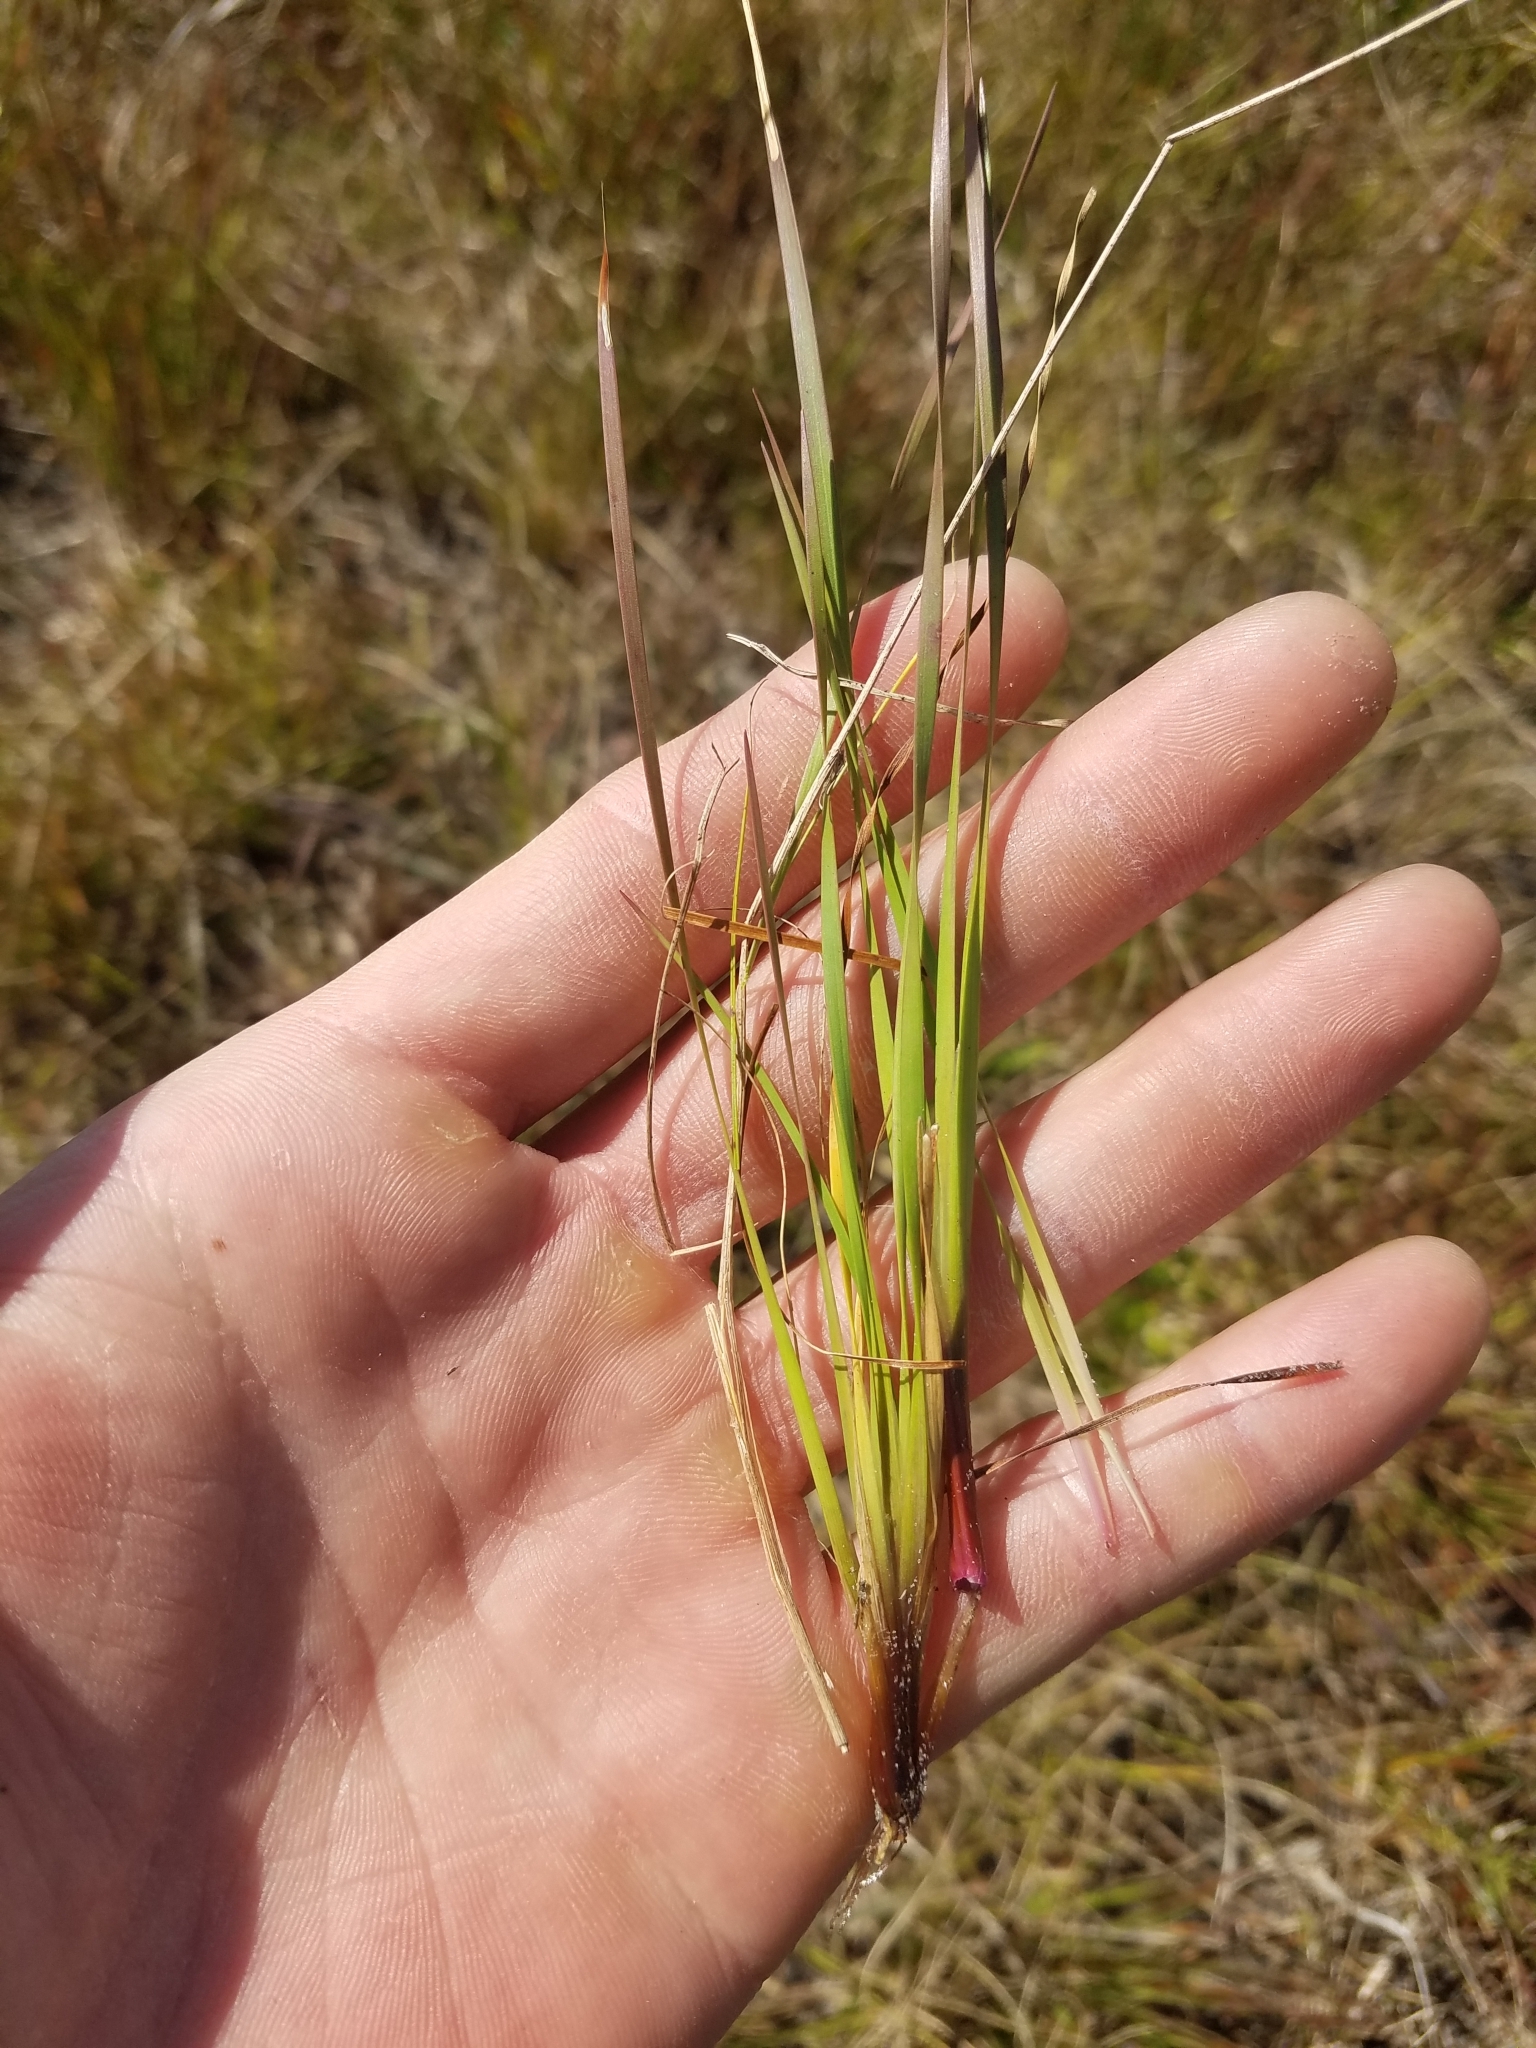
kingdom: Plantae
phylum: Tracheophyta
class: Liliopsida
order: Poales
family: Xyridaceae
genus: Xyris
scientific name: Xyris elliottii
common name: Elliot's yelloweyed grass
